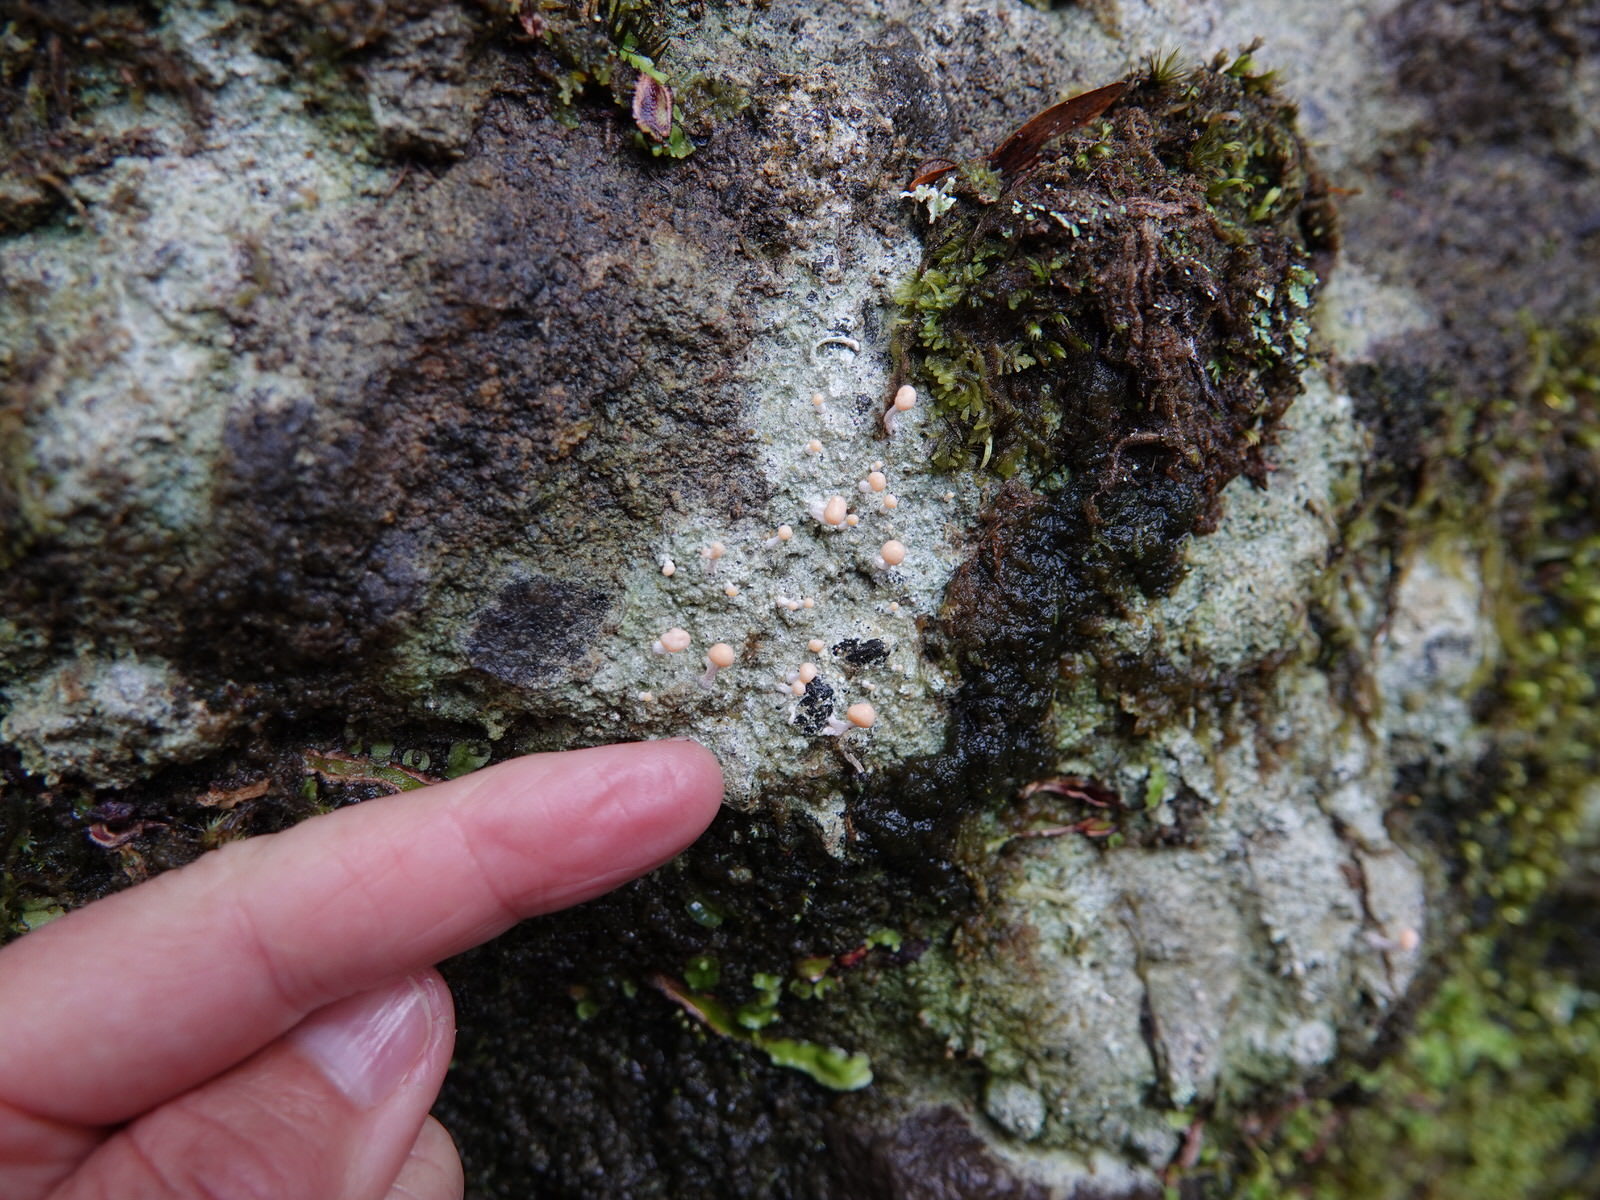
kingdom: Fungi
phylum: Ascomycota
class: Lecanoromycetes
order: Pertusariales
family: Icmadophilaceae
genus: Dibaeis
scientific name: Dibaeis arcuata
